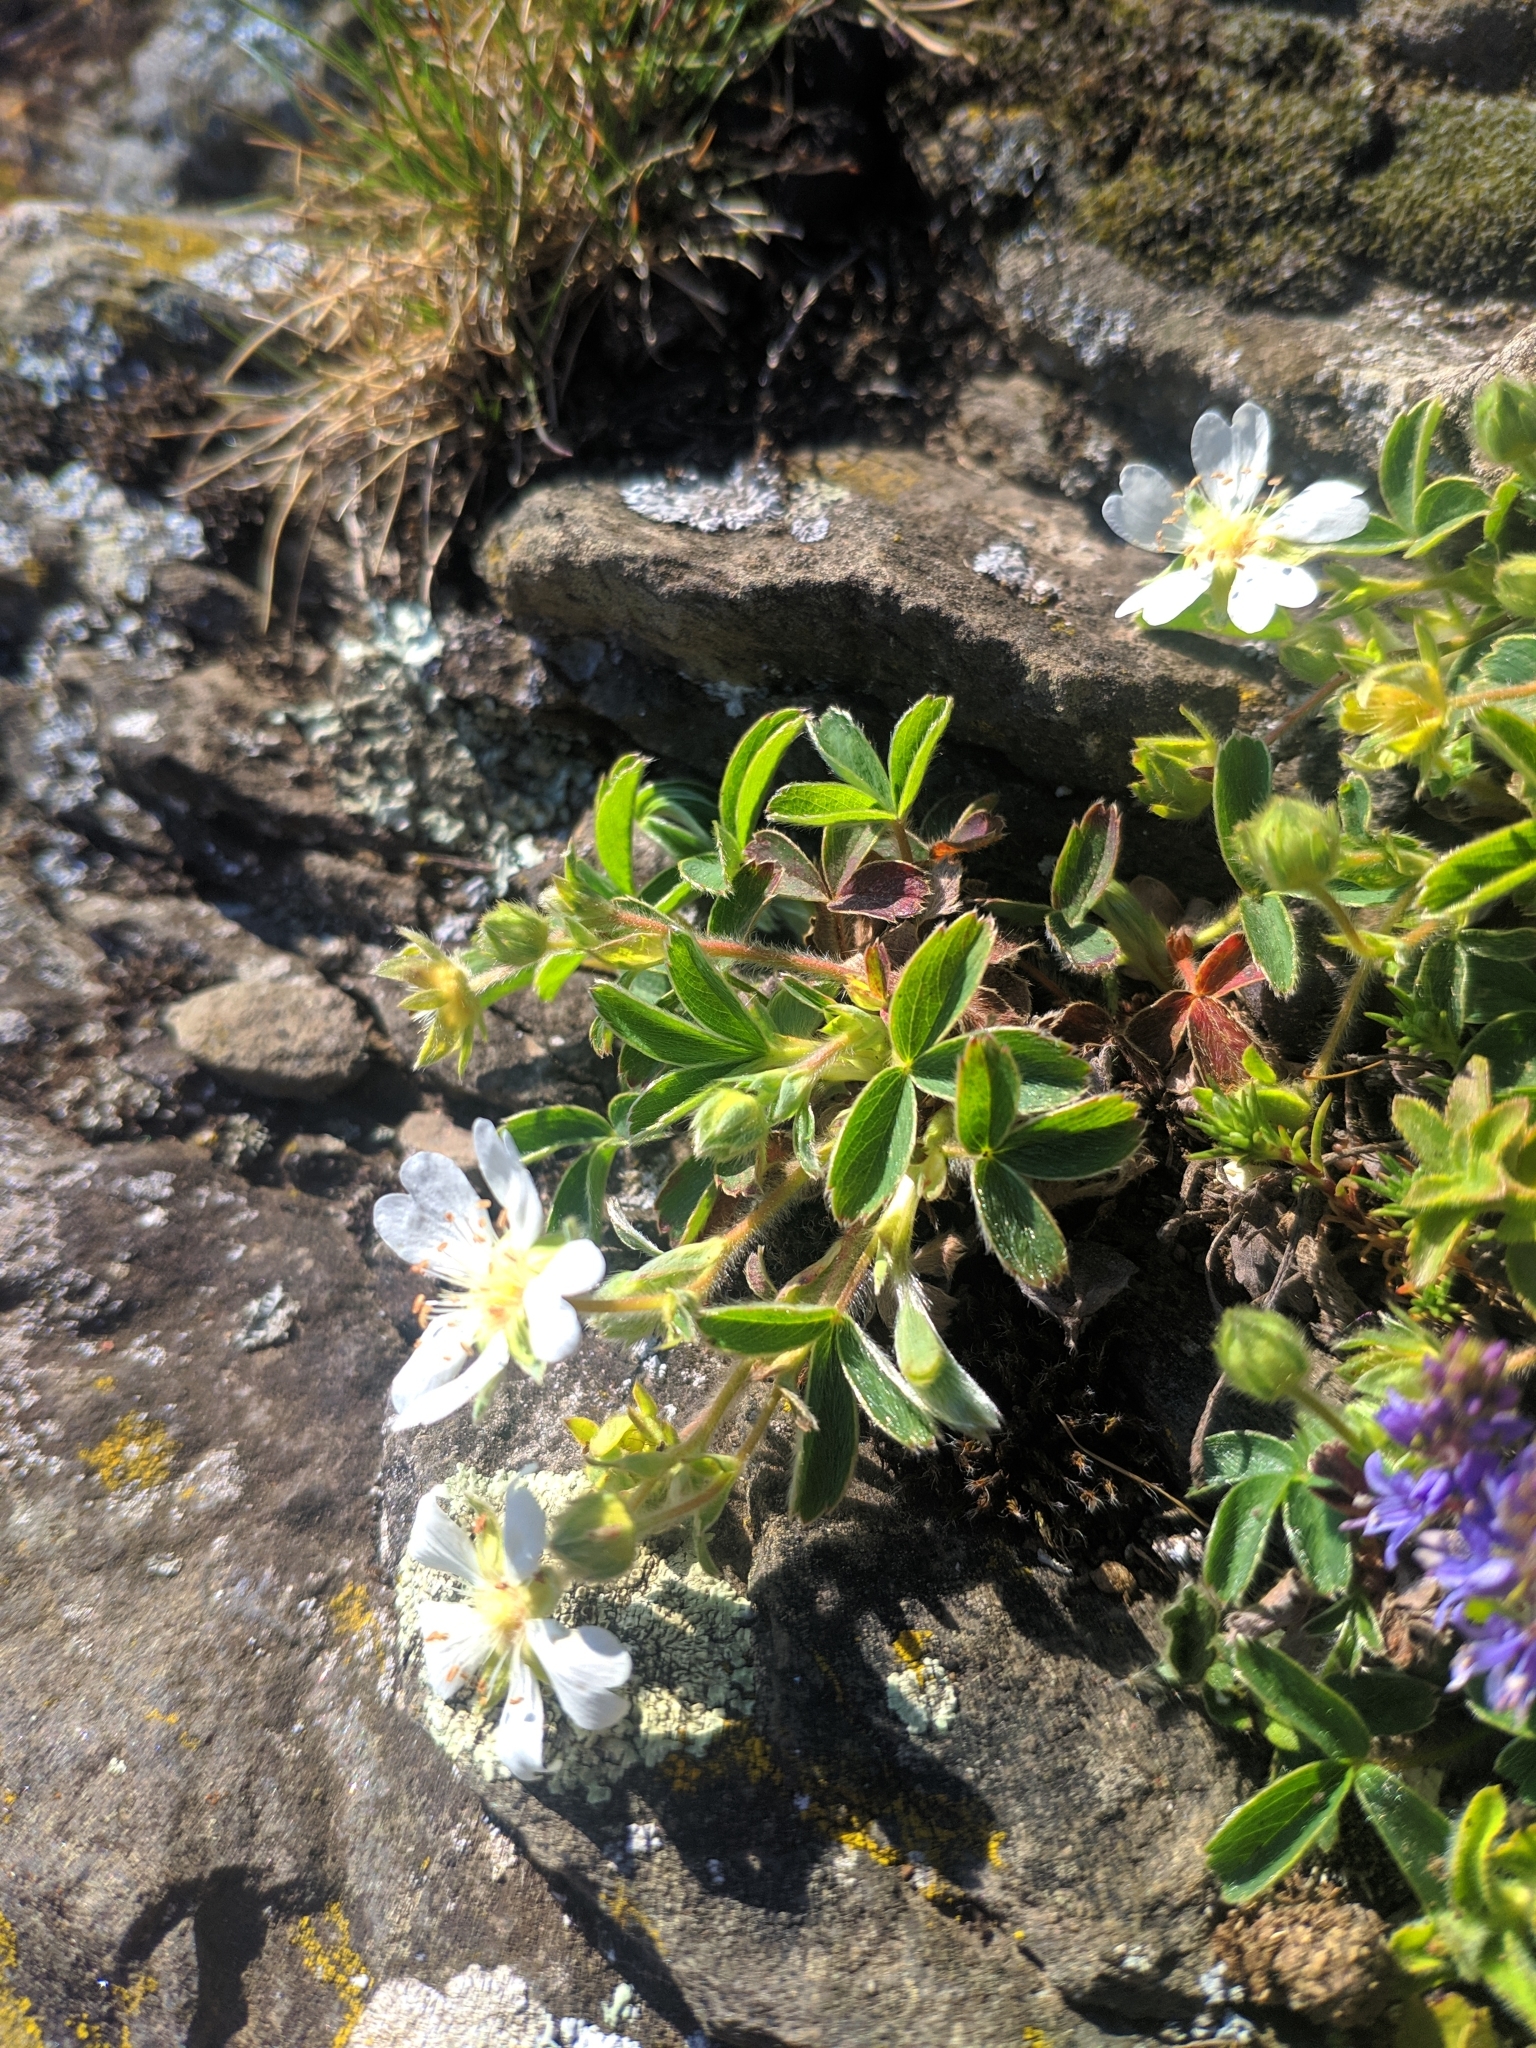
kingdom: Plantae
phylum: Tracheophyta
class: Magnoliopsida
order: Rosales
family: Rosaceae
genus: Potentilla
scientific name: Potentilla montana
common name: Mountain cinquefoil
